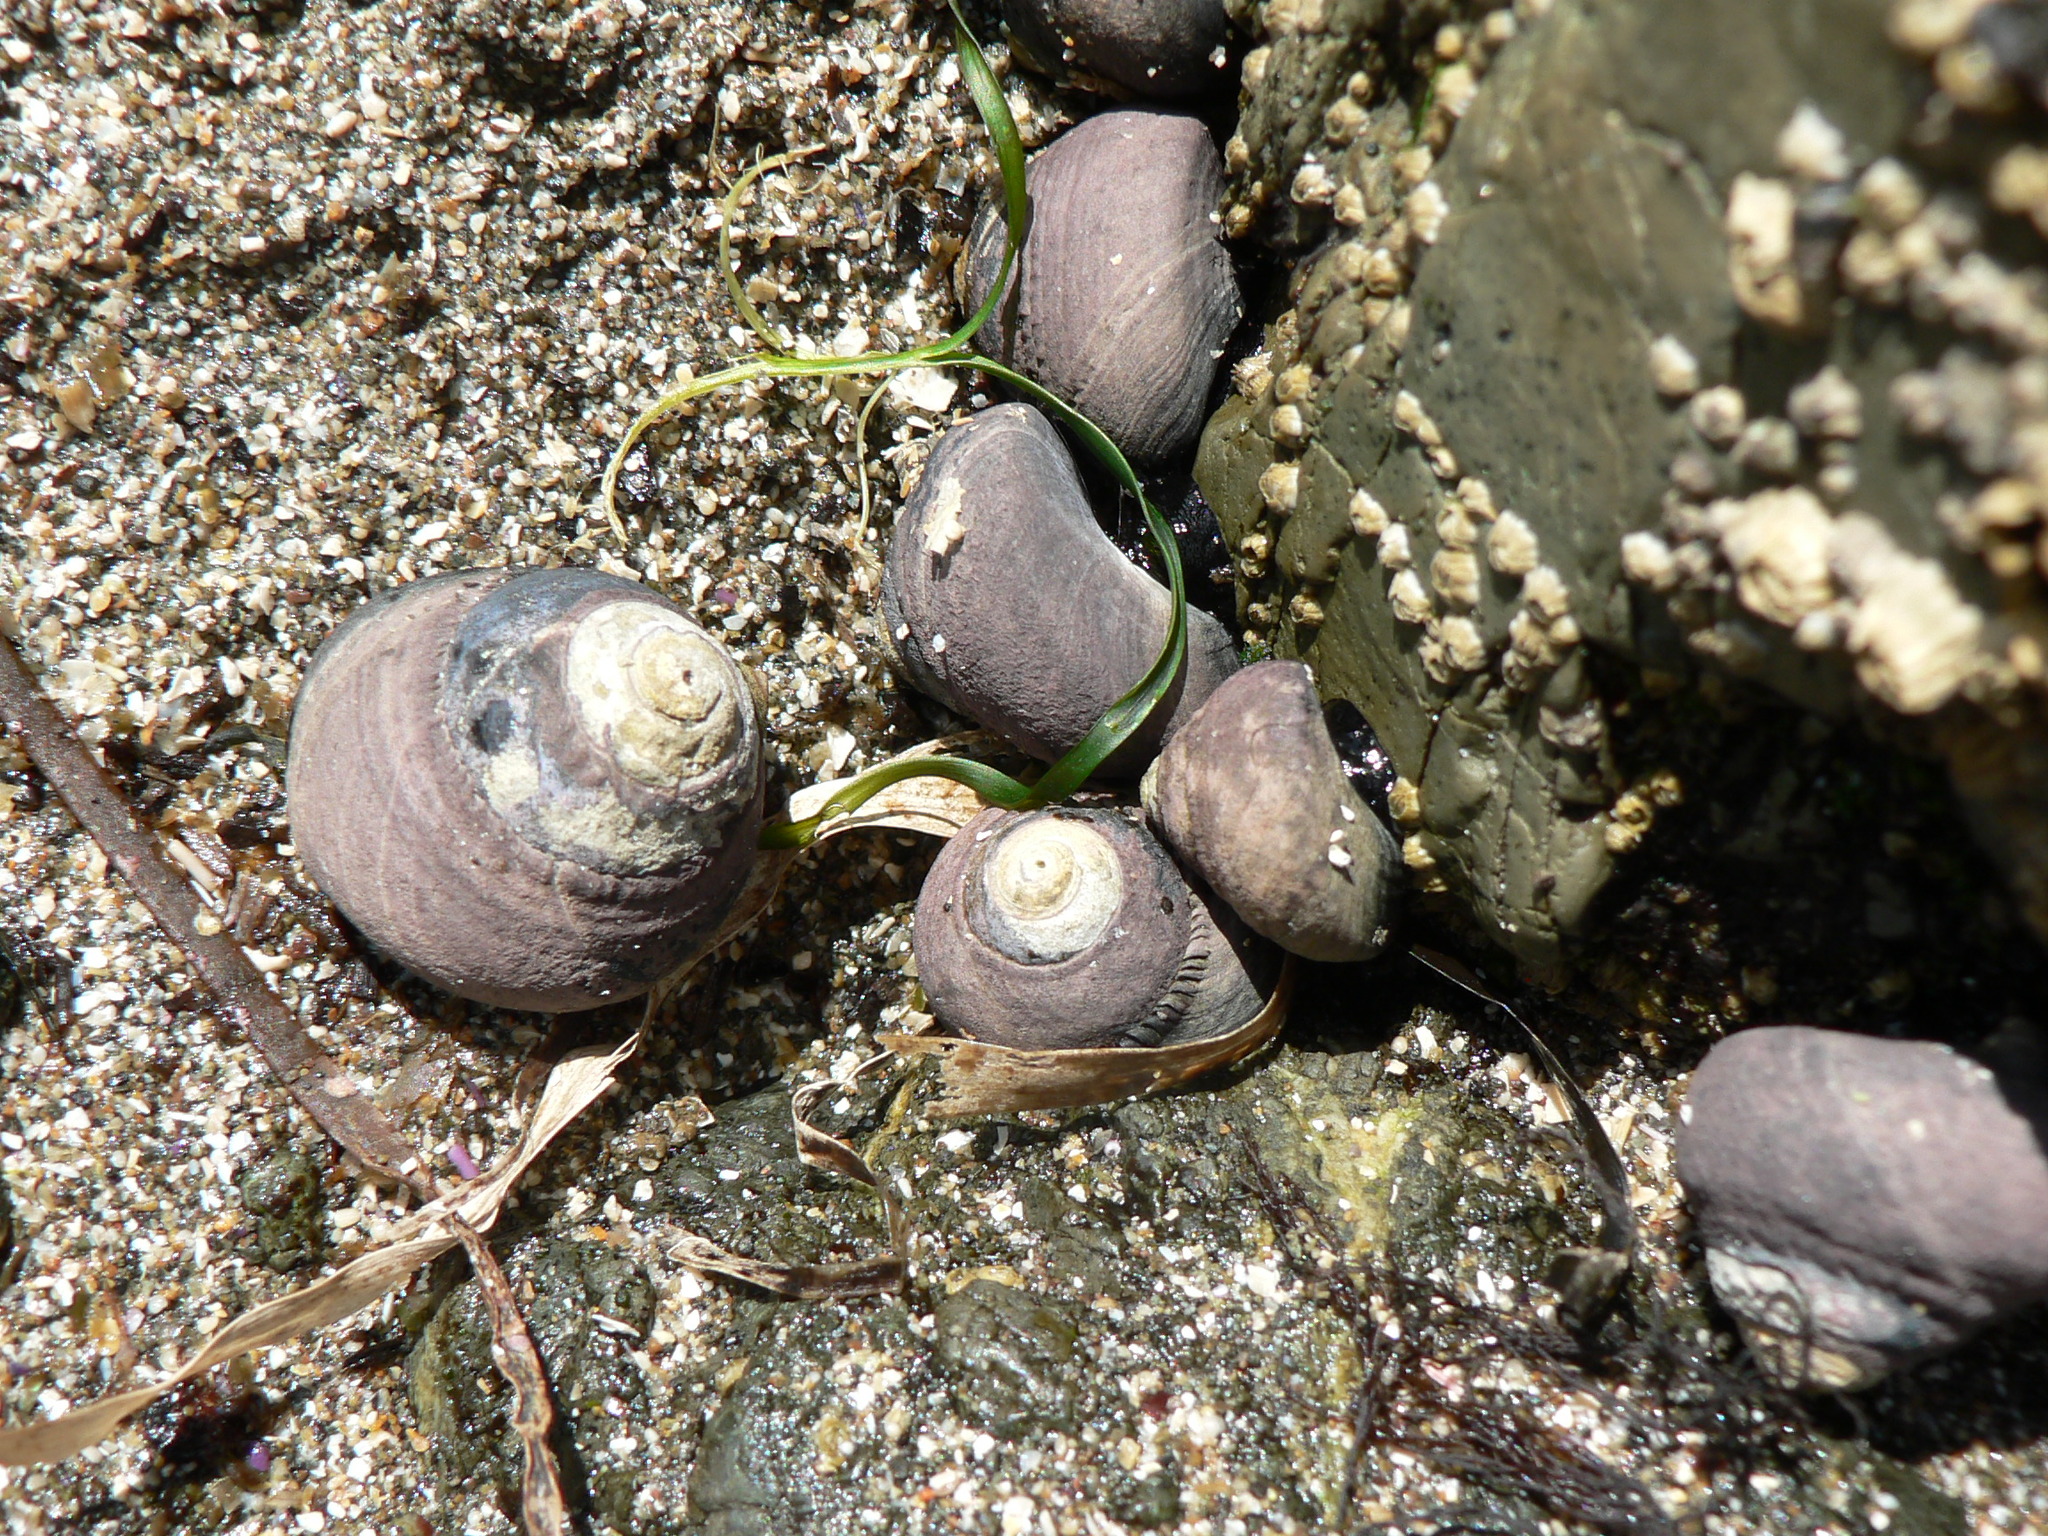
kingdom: Animalia
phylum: Mollusca
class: Gastropoda
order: Trochida
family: Tegulidae
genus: Tegula
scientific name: Tegula funebralis
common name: Black tegula
